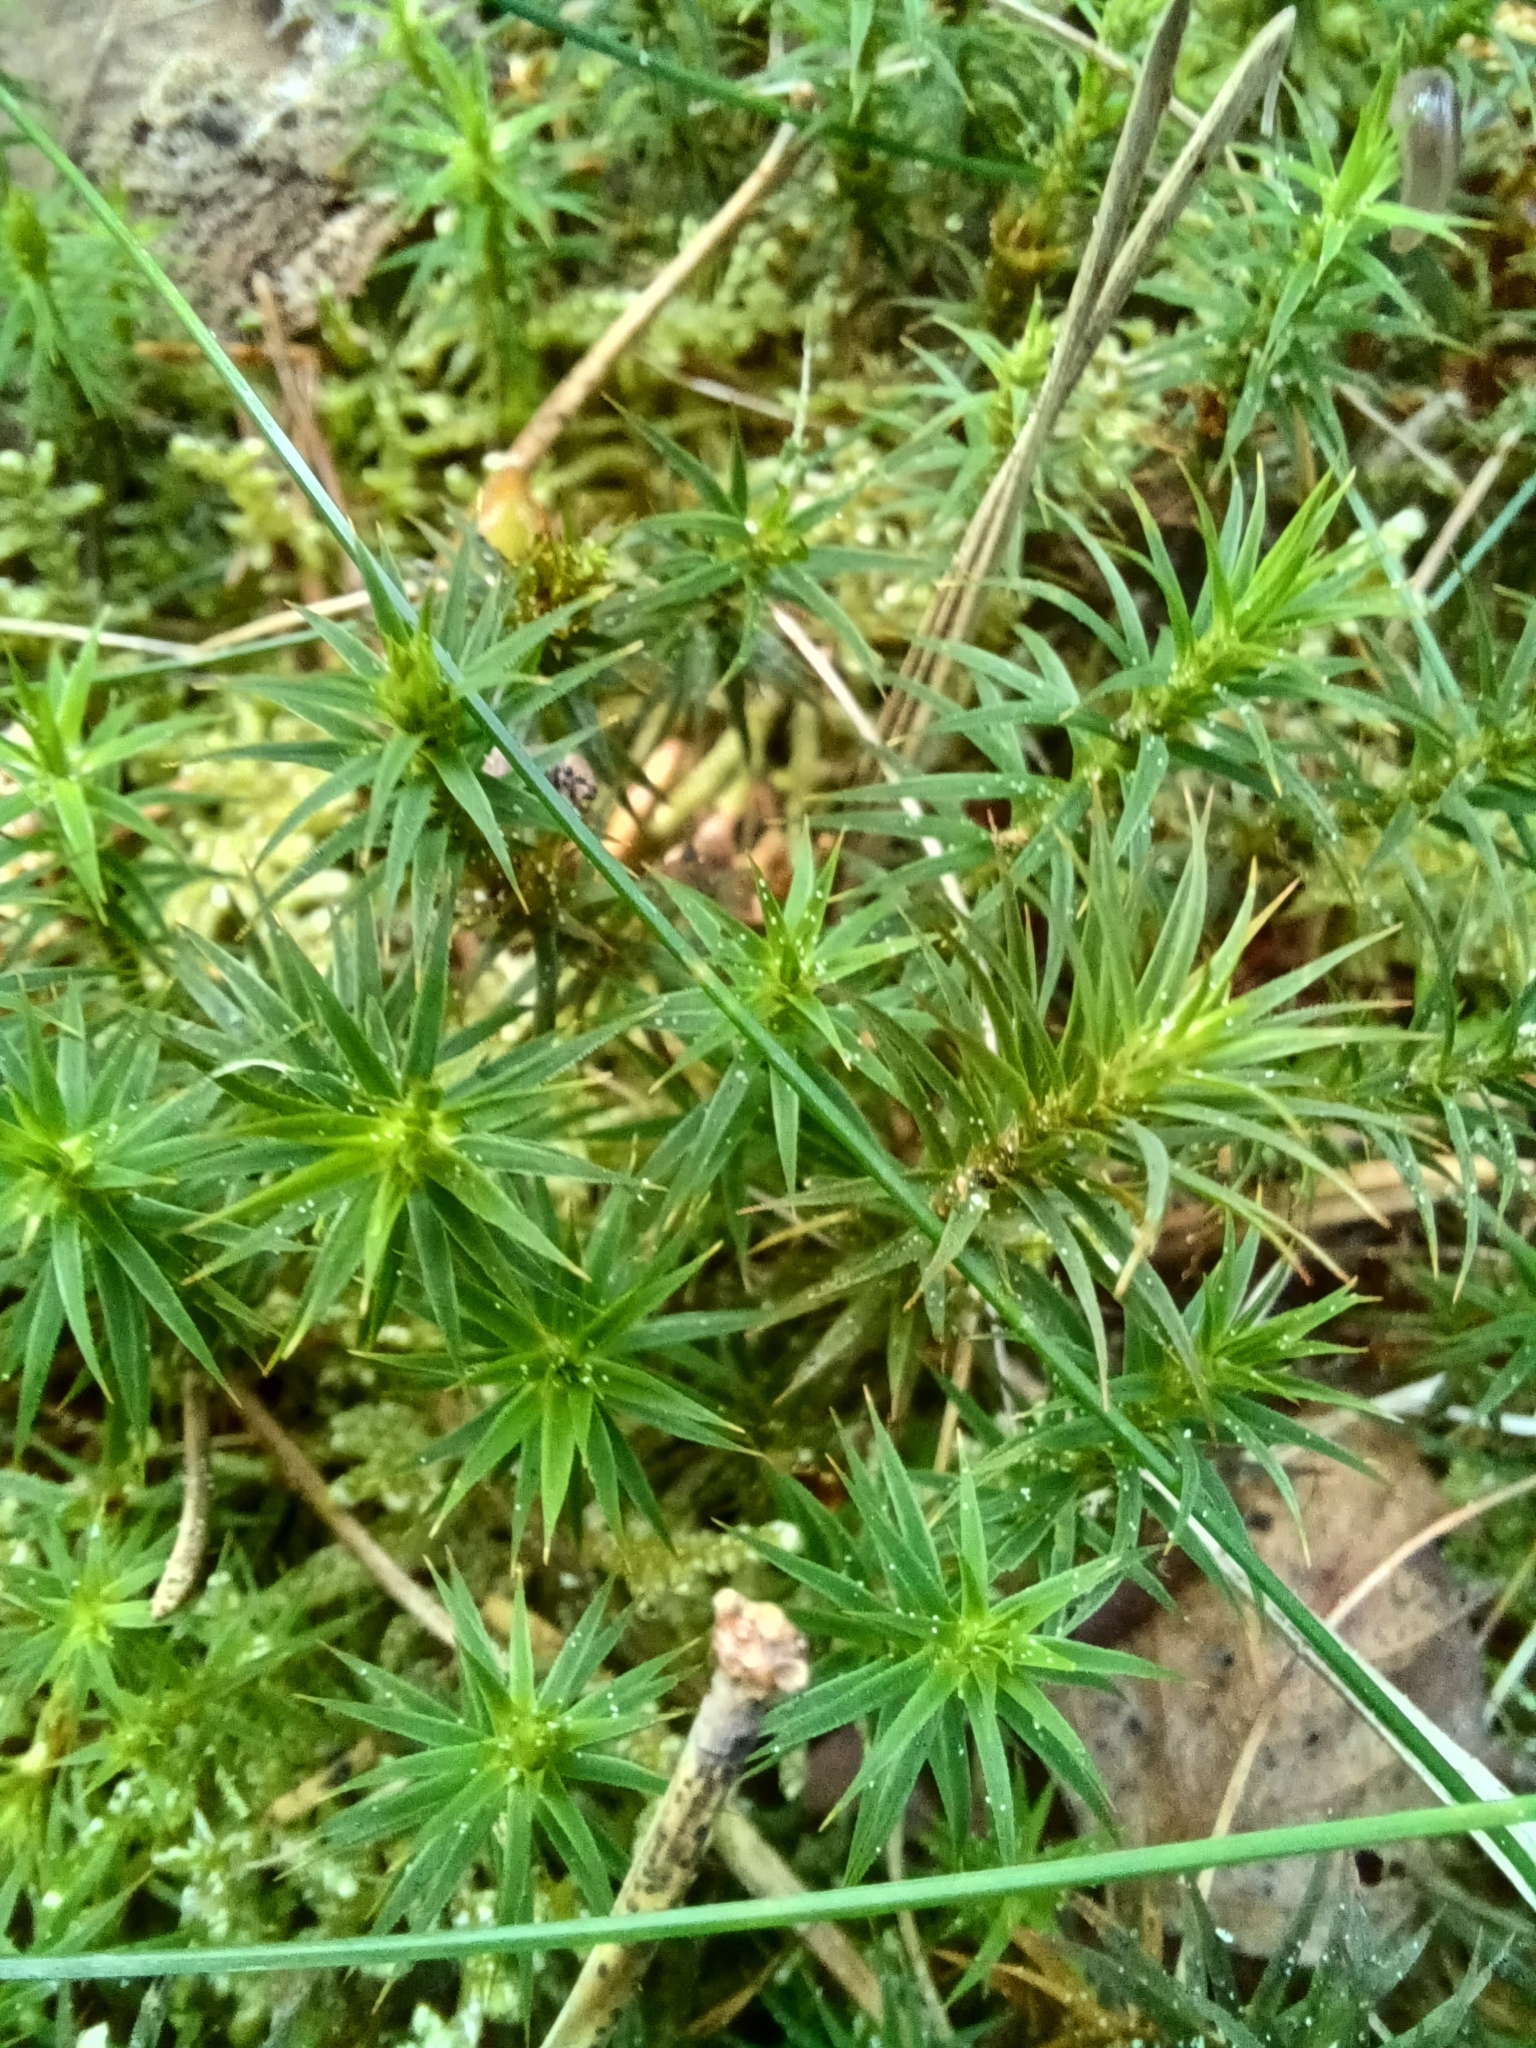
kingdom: Plantae
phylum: Bryophyta
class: Polytrichopsida
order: Polytrichales
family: Polytrichaceae
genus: Polytrichum
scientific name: Polytrichum formosum
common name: Bank haircap moss
